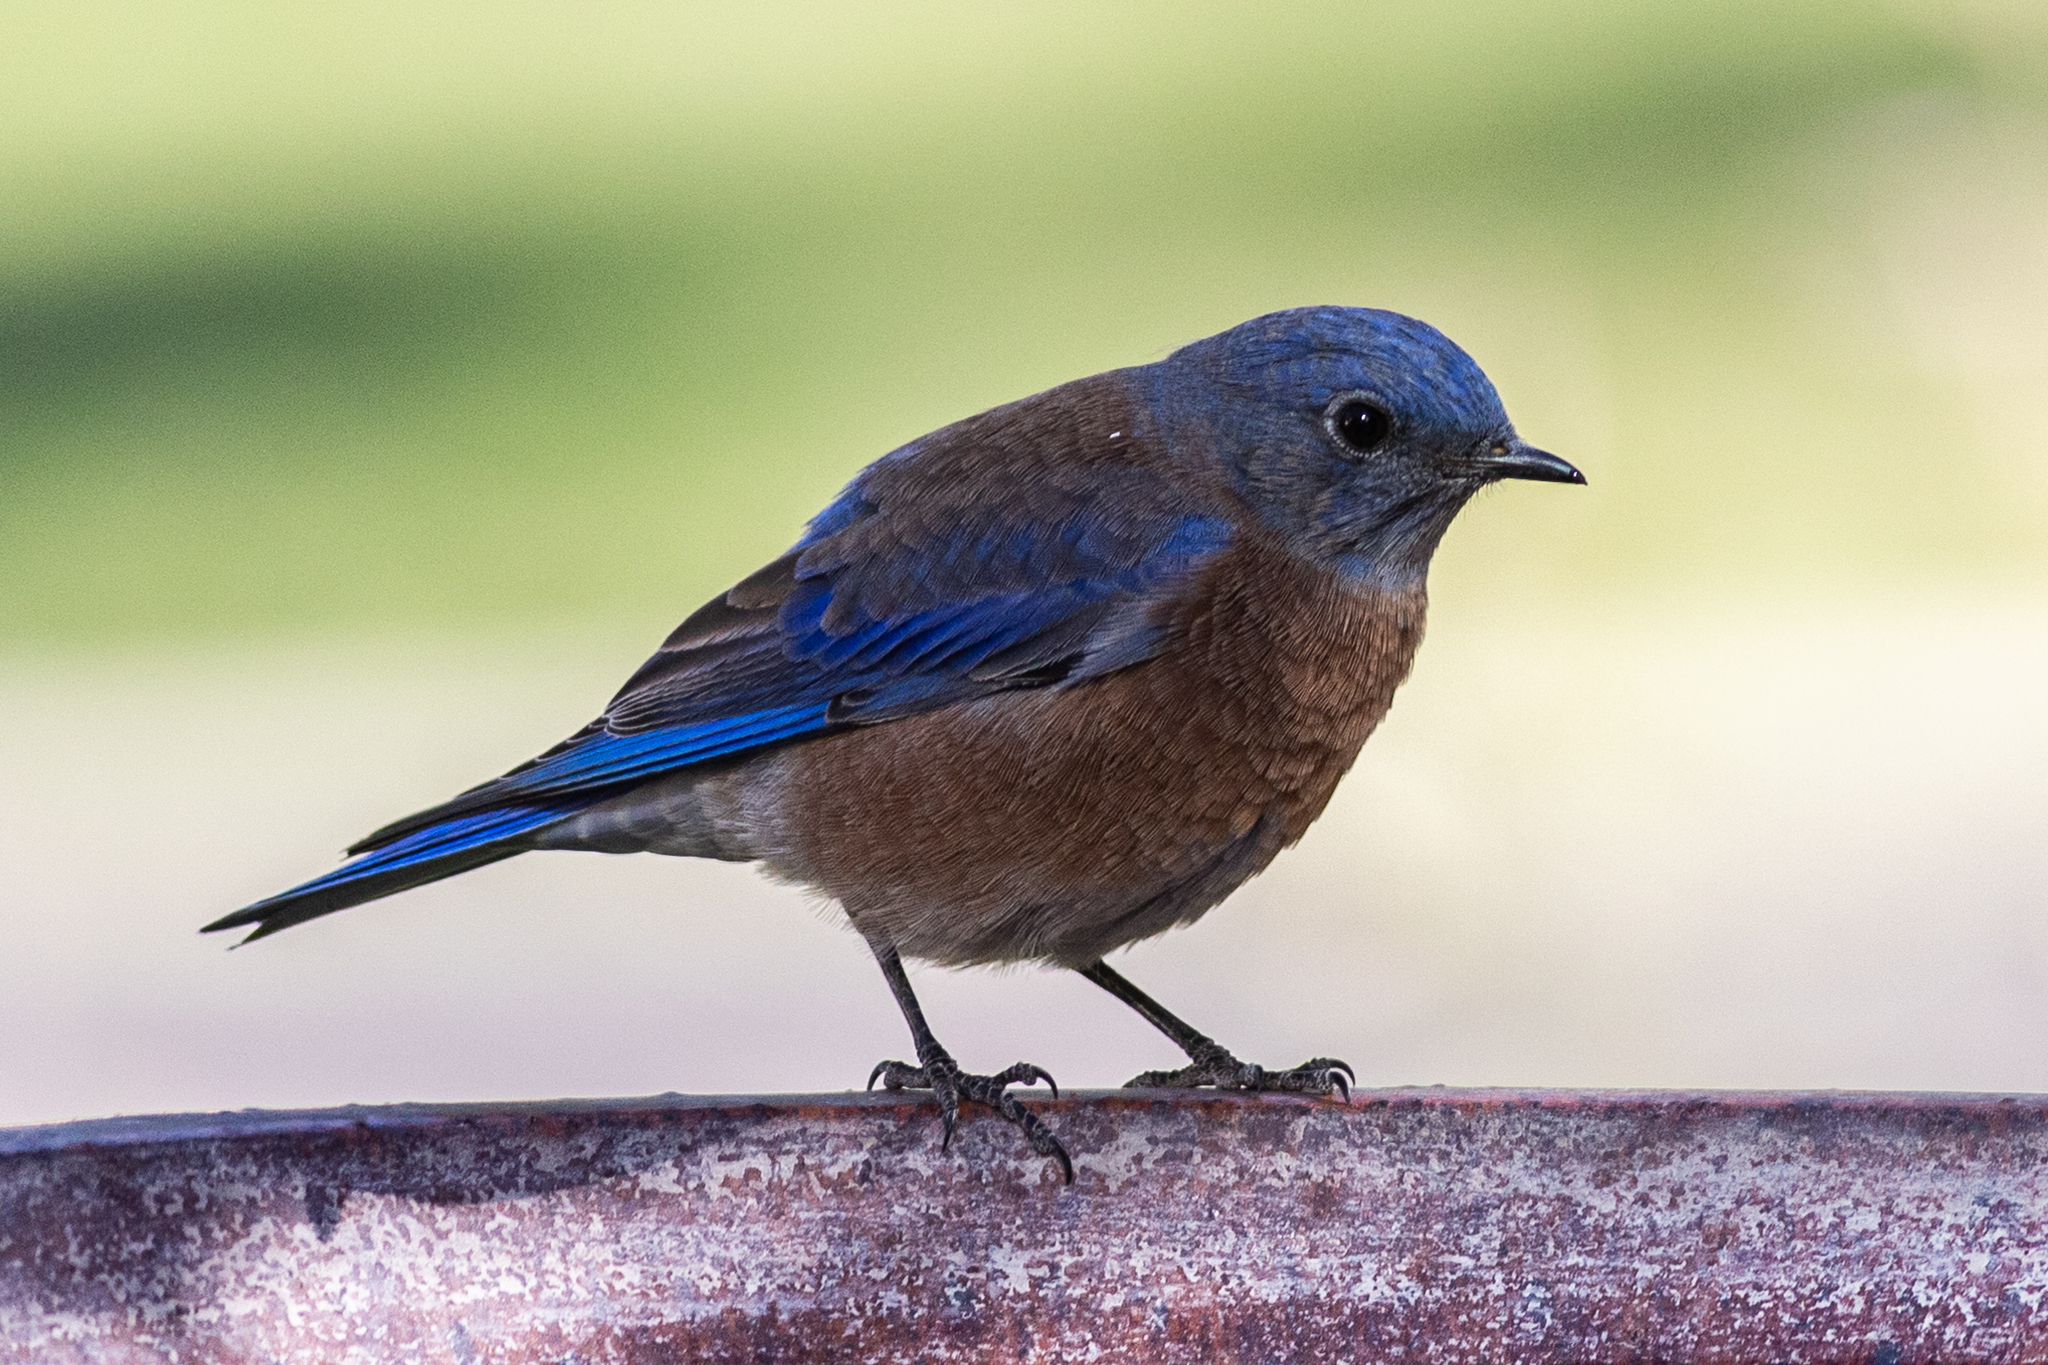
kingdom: Animalia
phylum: Chordata
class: Aves
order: Passeriformes
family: Turdidae
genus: Sialia
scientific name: Sialia mexicana
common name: Western bluebird
